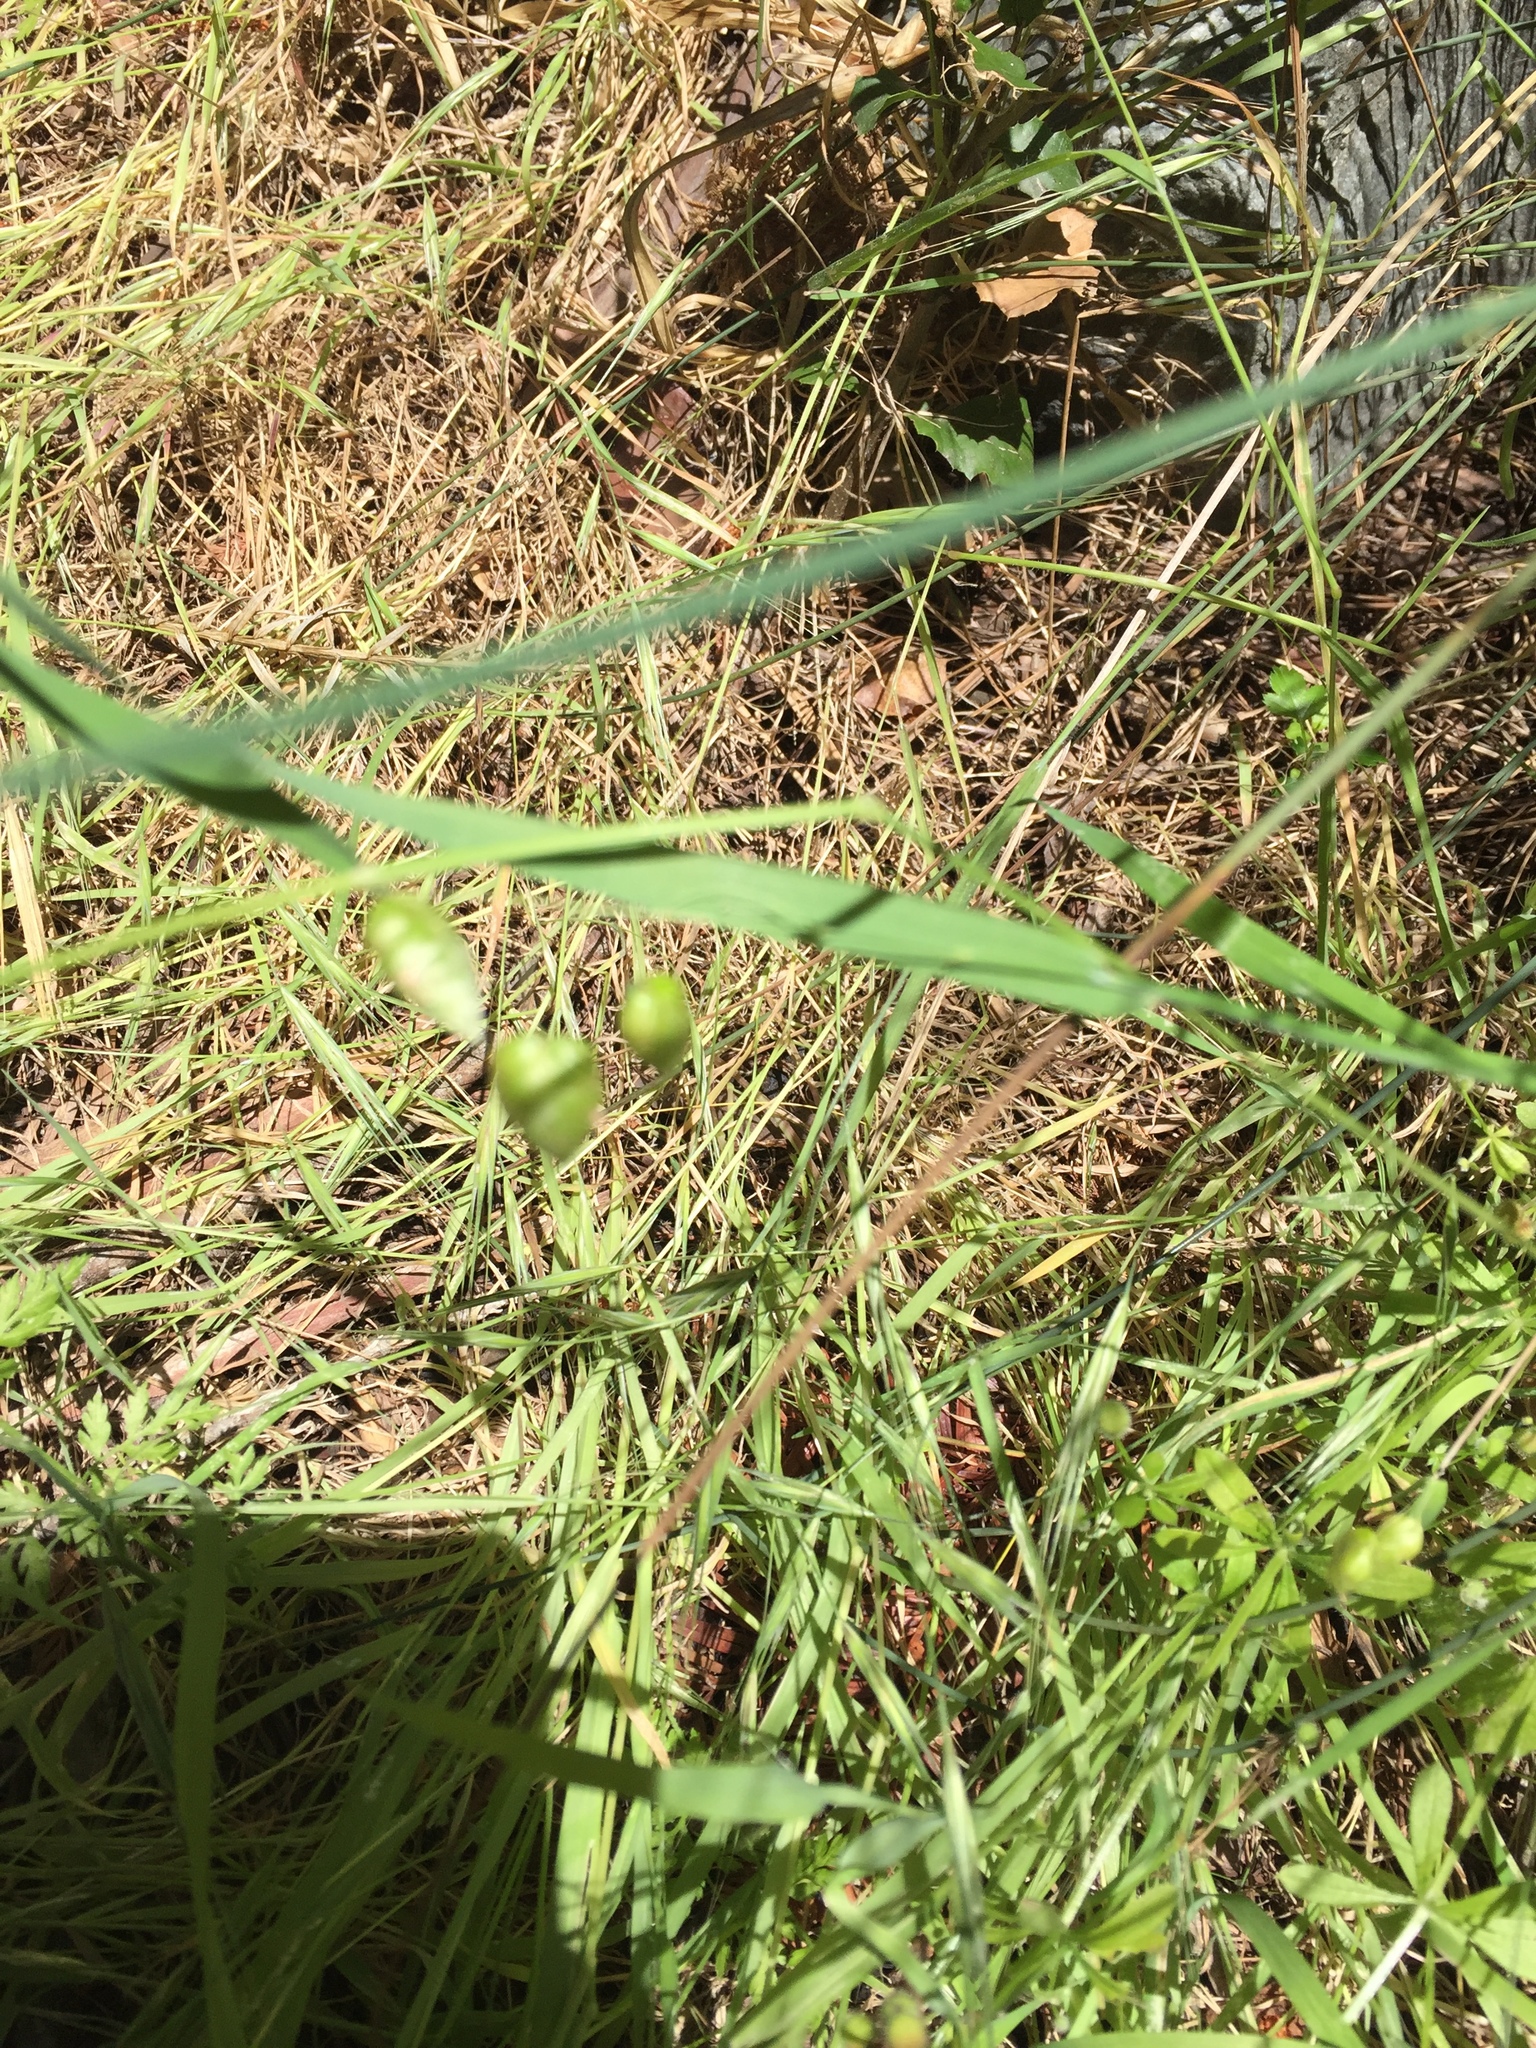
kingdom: Plantae
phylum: Tracheophyta
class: Liliopsida
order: Poales
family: Poaceae
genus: Briza
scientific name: Briza maxima
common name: Big quakinggrass
